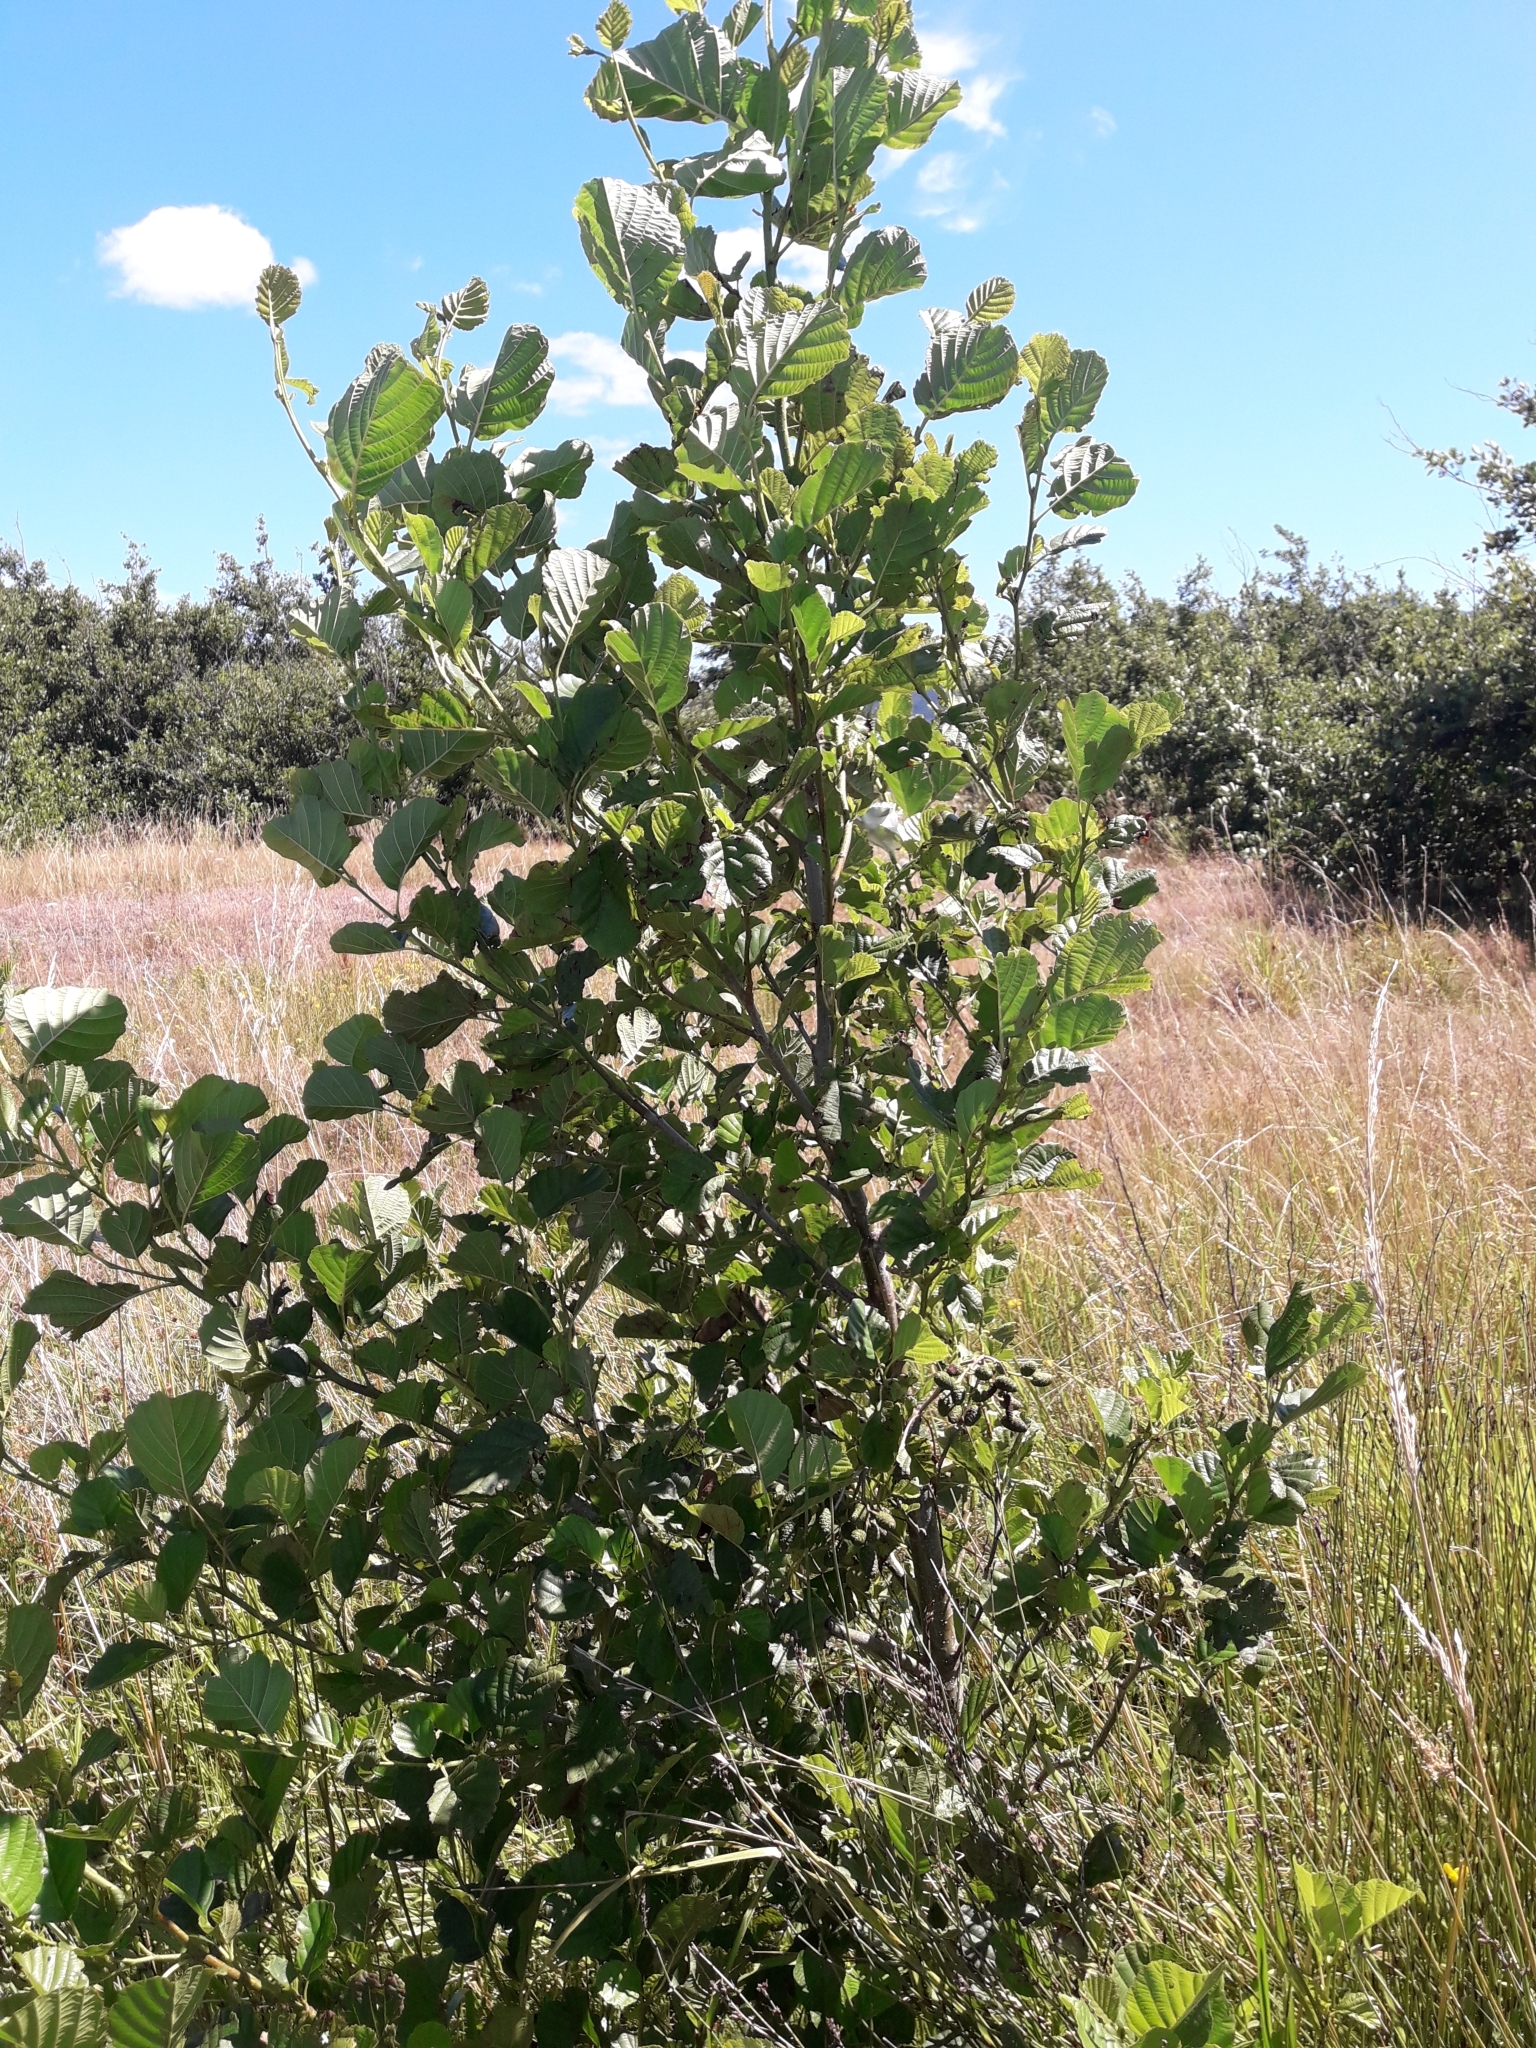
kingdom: Plantae
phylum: Tracheophyta
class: Magnoliopsida
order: Fagales
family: Betulaceae
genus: Alnus
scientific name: Alnus glutinosa
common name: Black alder
